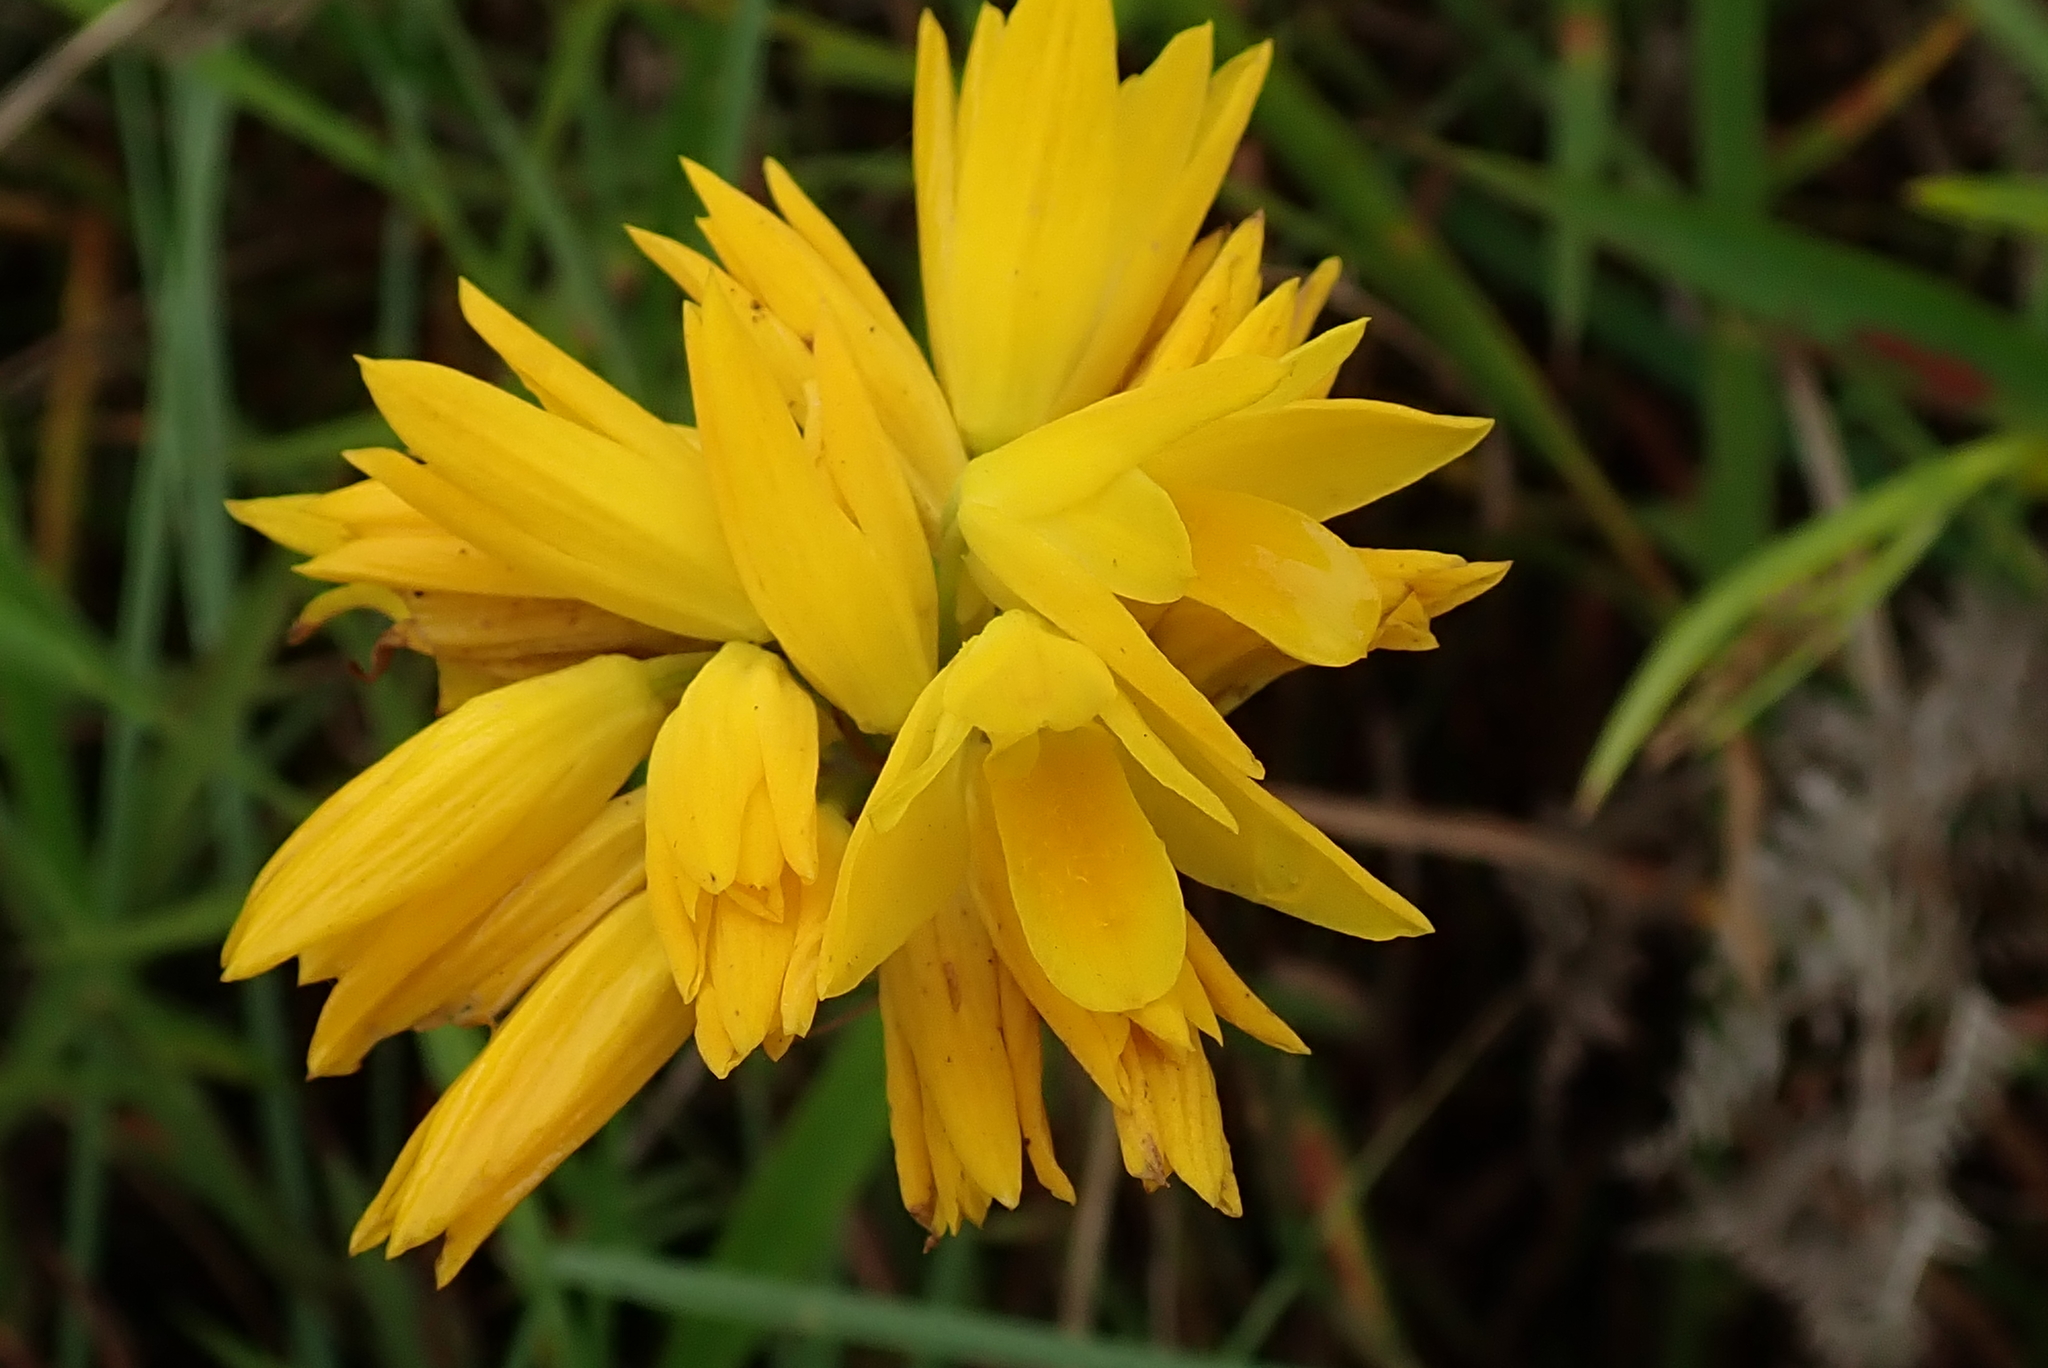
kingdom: Plantae
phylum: Tracheophyta
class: Liliopsida
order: Asparagales
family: Orchidaceae
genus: Eulophia
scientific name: Eulophia ensata
